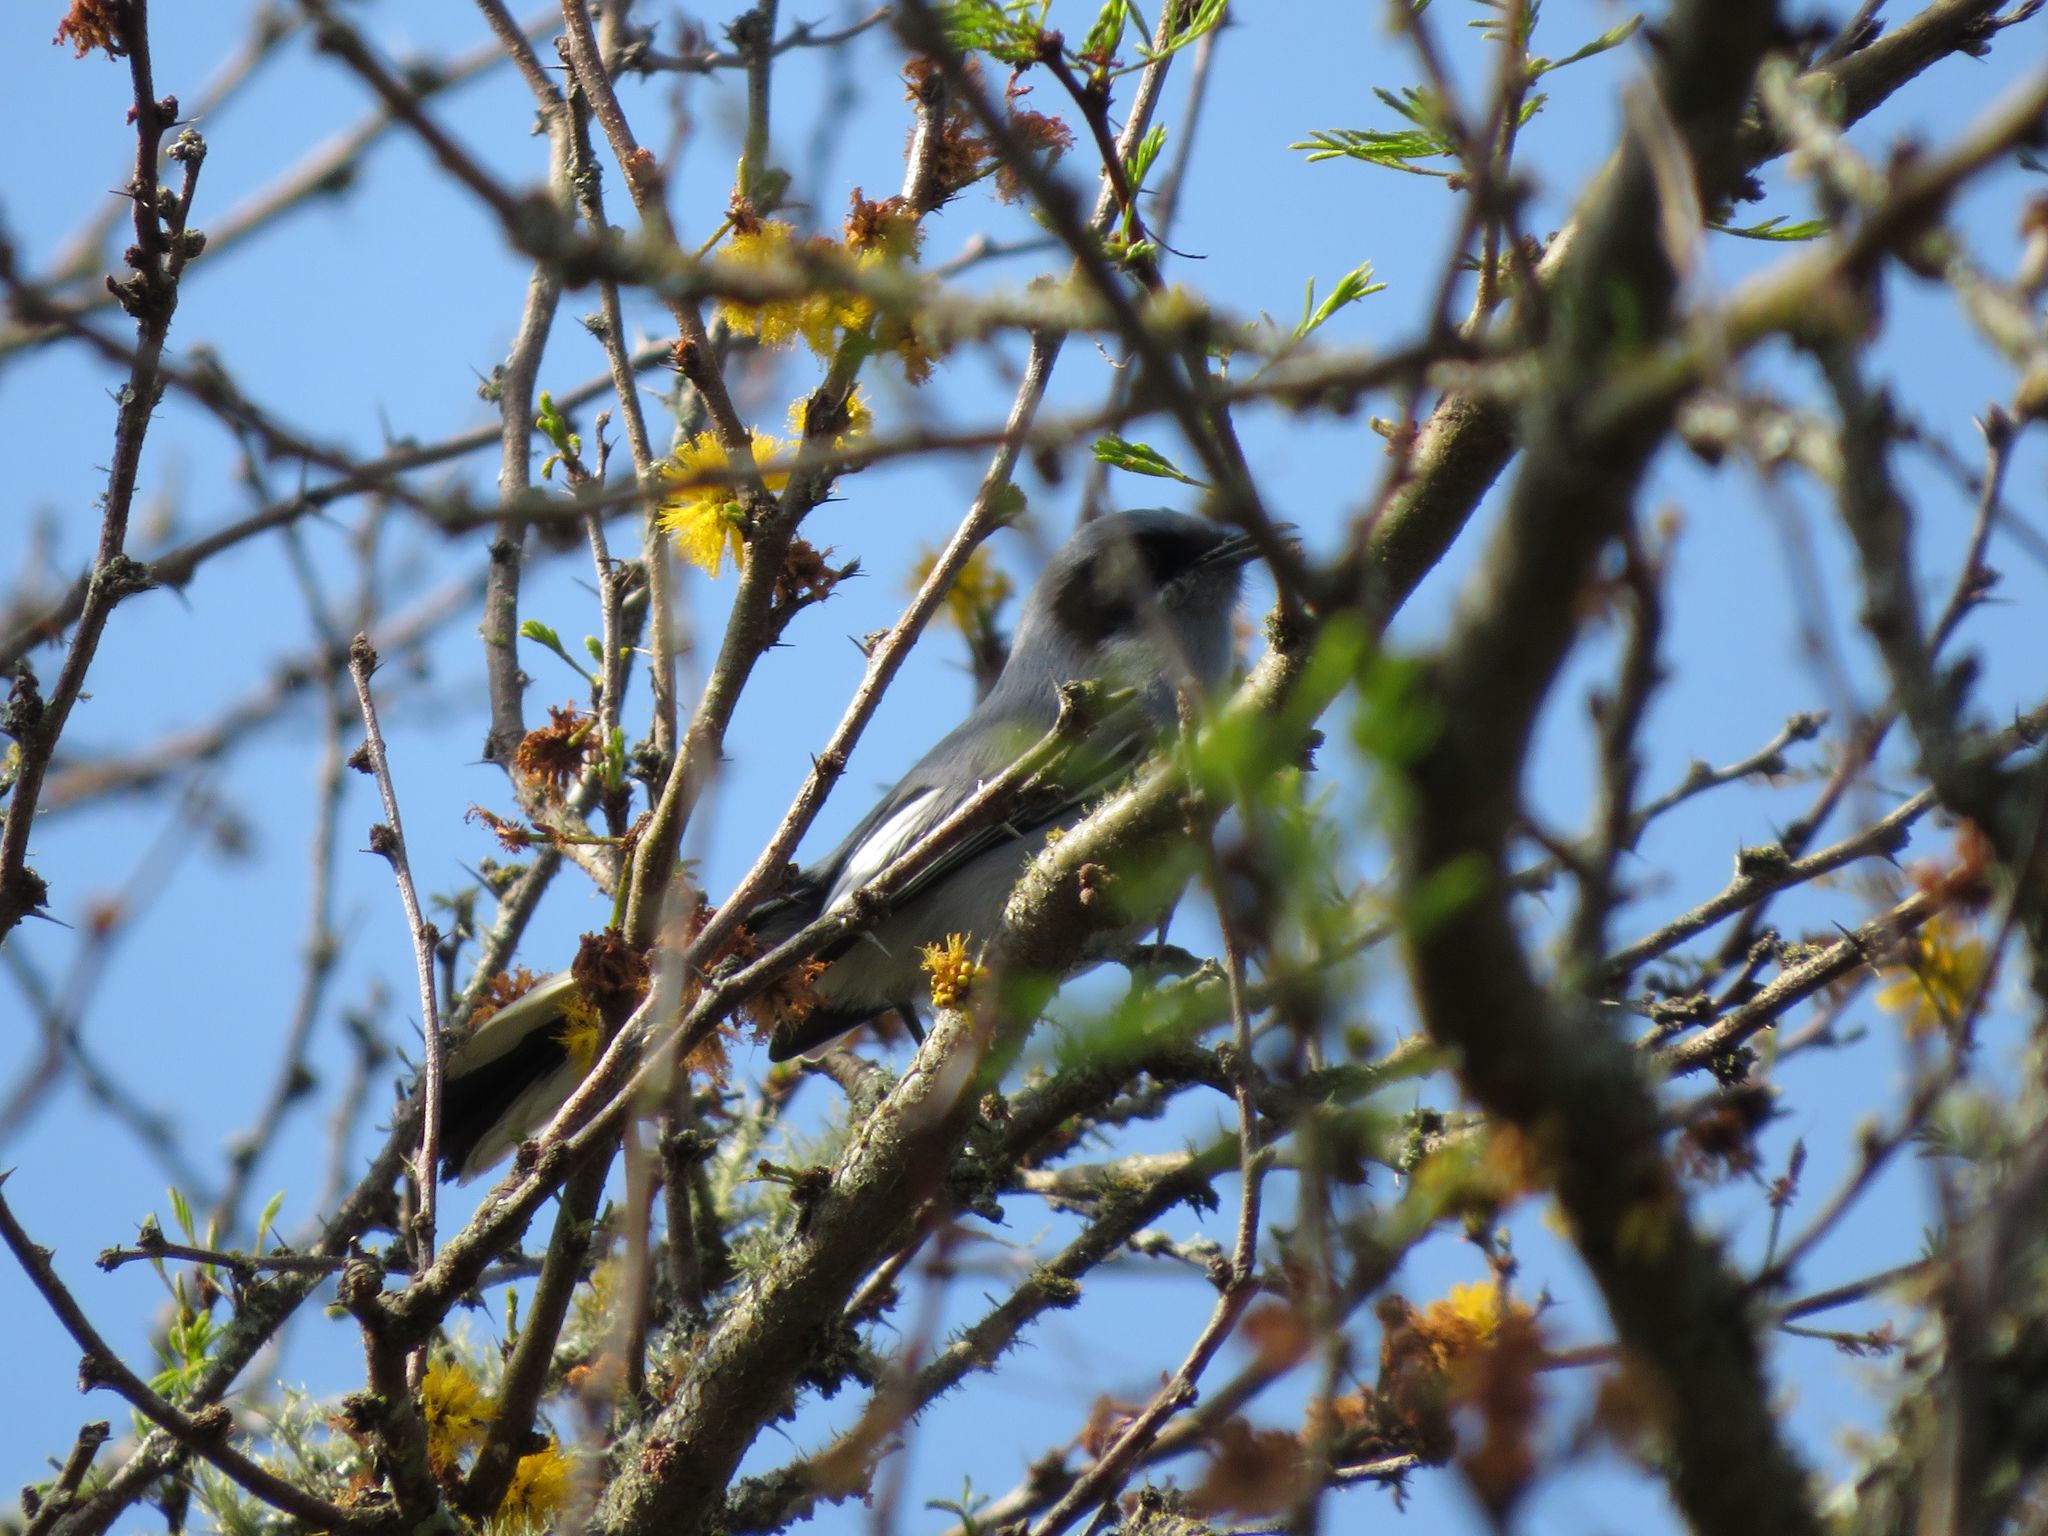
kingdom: Animalia
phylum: Chordata
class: Aves
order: Passeriformes
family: Polioptilidae
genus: Polioptila
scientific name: Polioptila dumicola
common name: Masked gnatcatcher
